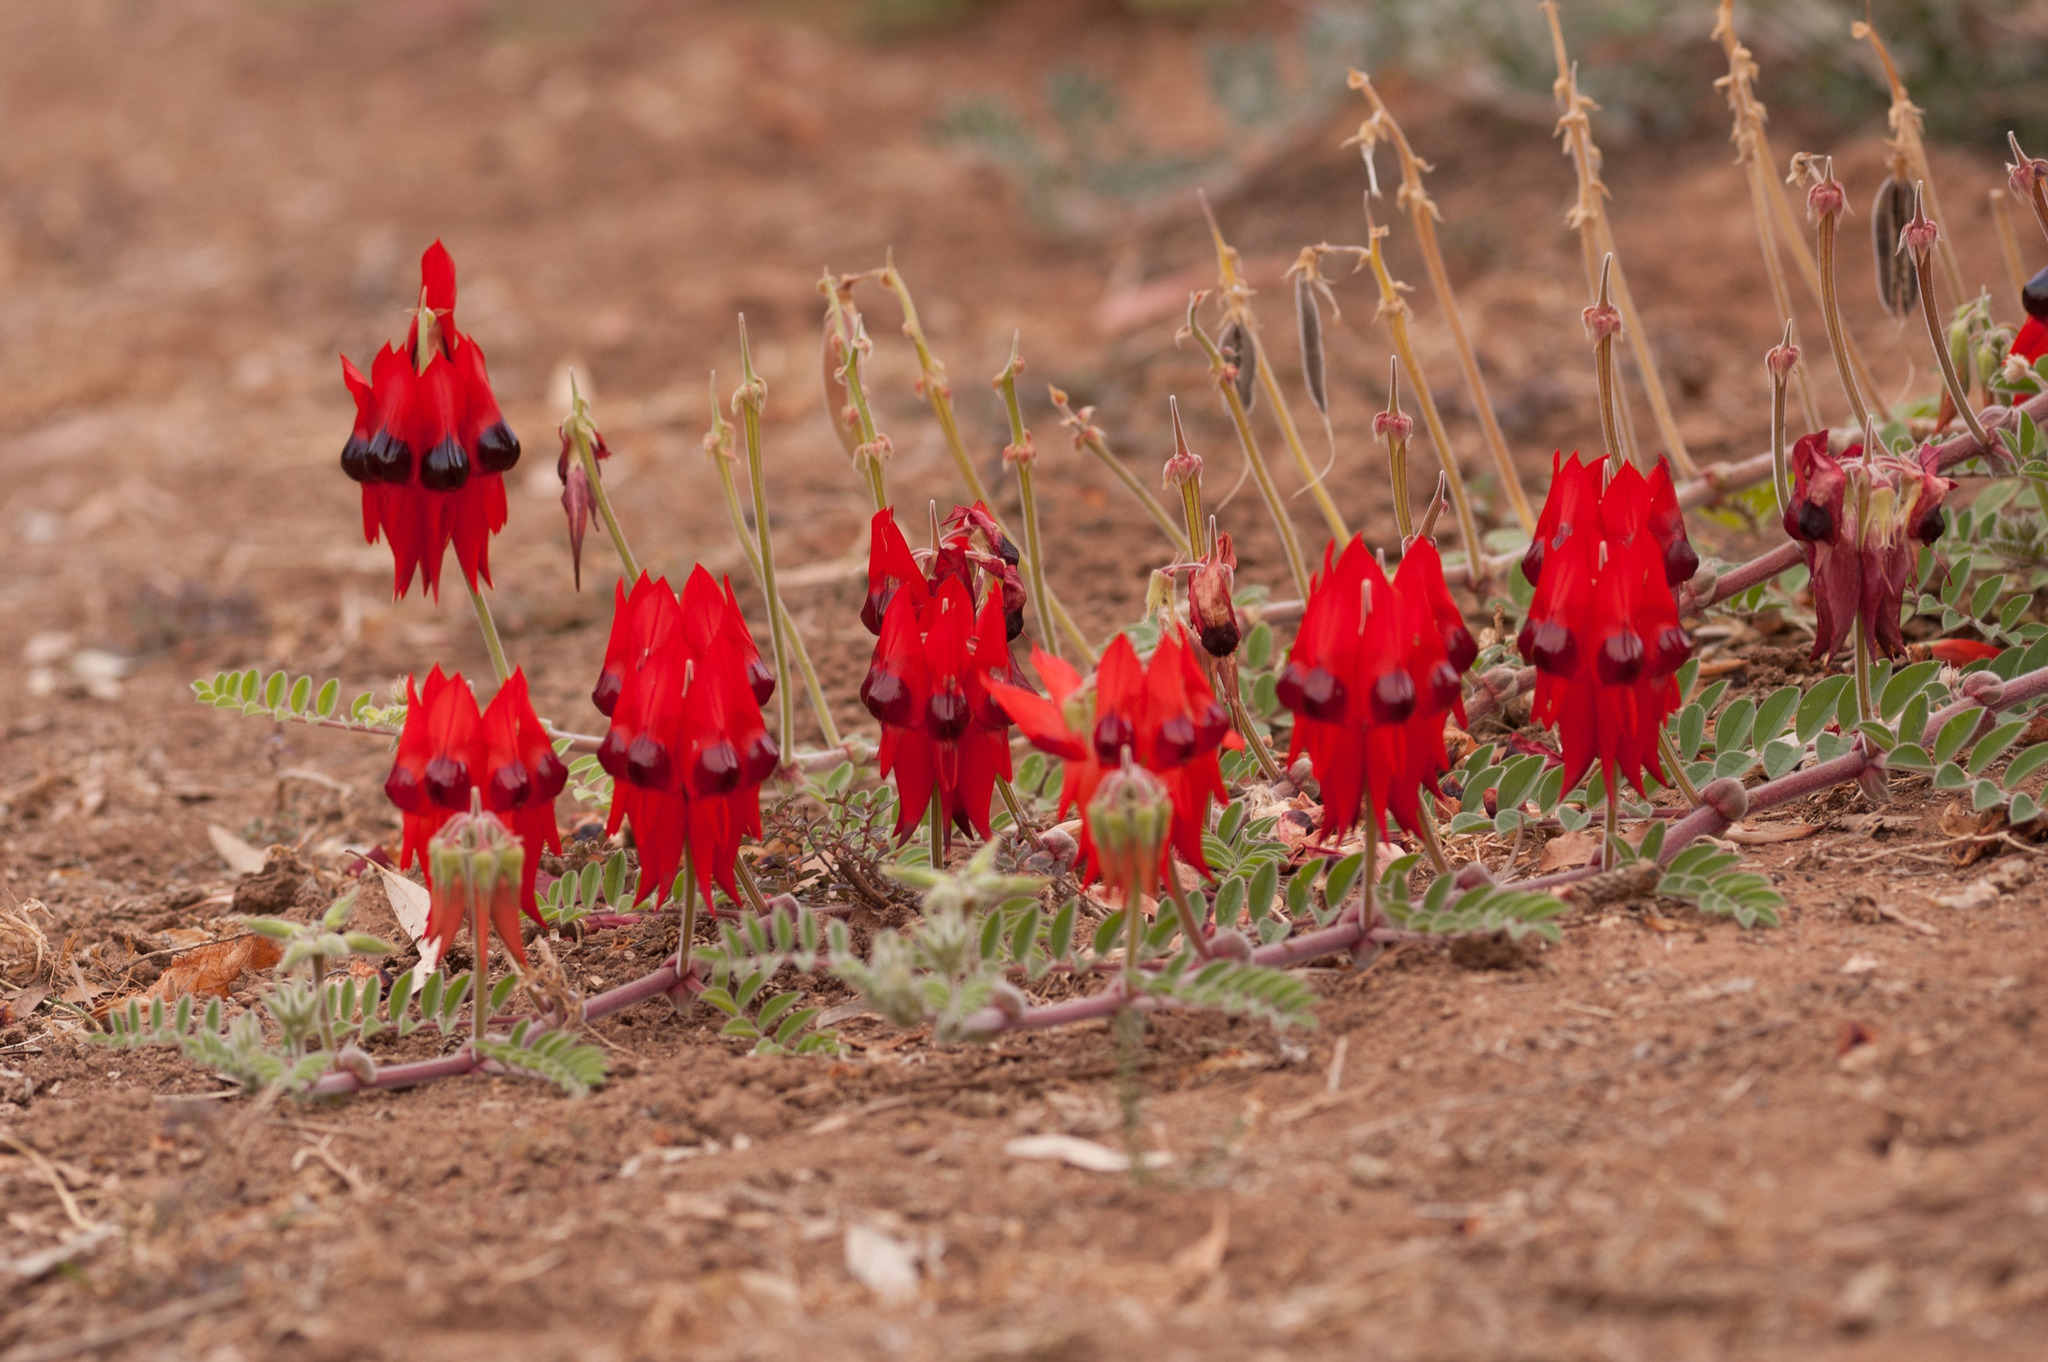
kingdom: Plantae
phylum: Tracheophyta
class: Magnoliopsida
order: Fabales
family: Fabaceae
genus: Swainsona
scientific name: Swainsona formosa
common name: Sturt's desert-pea
